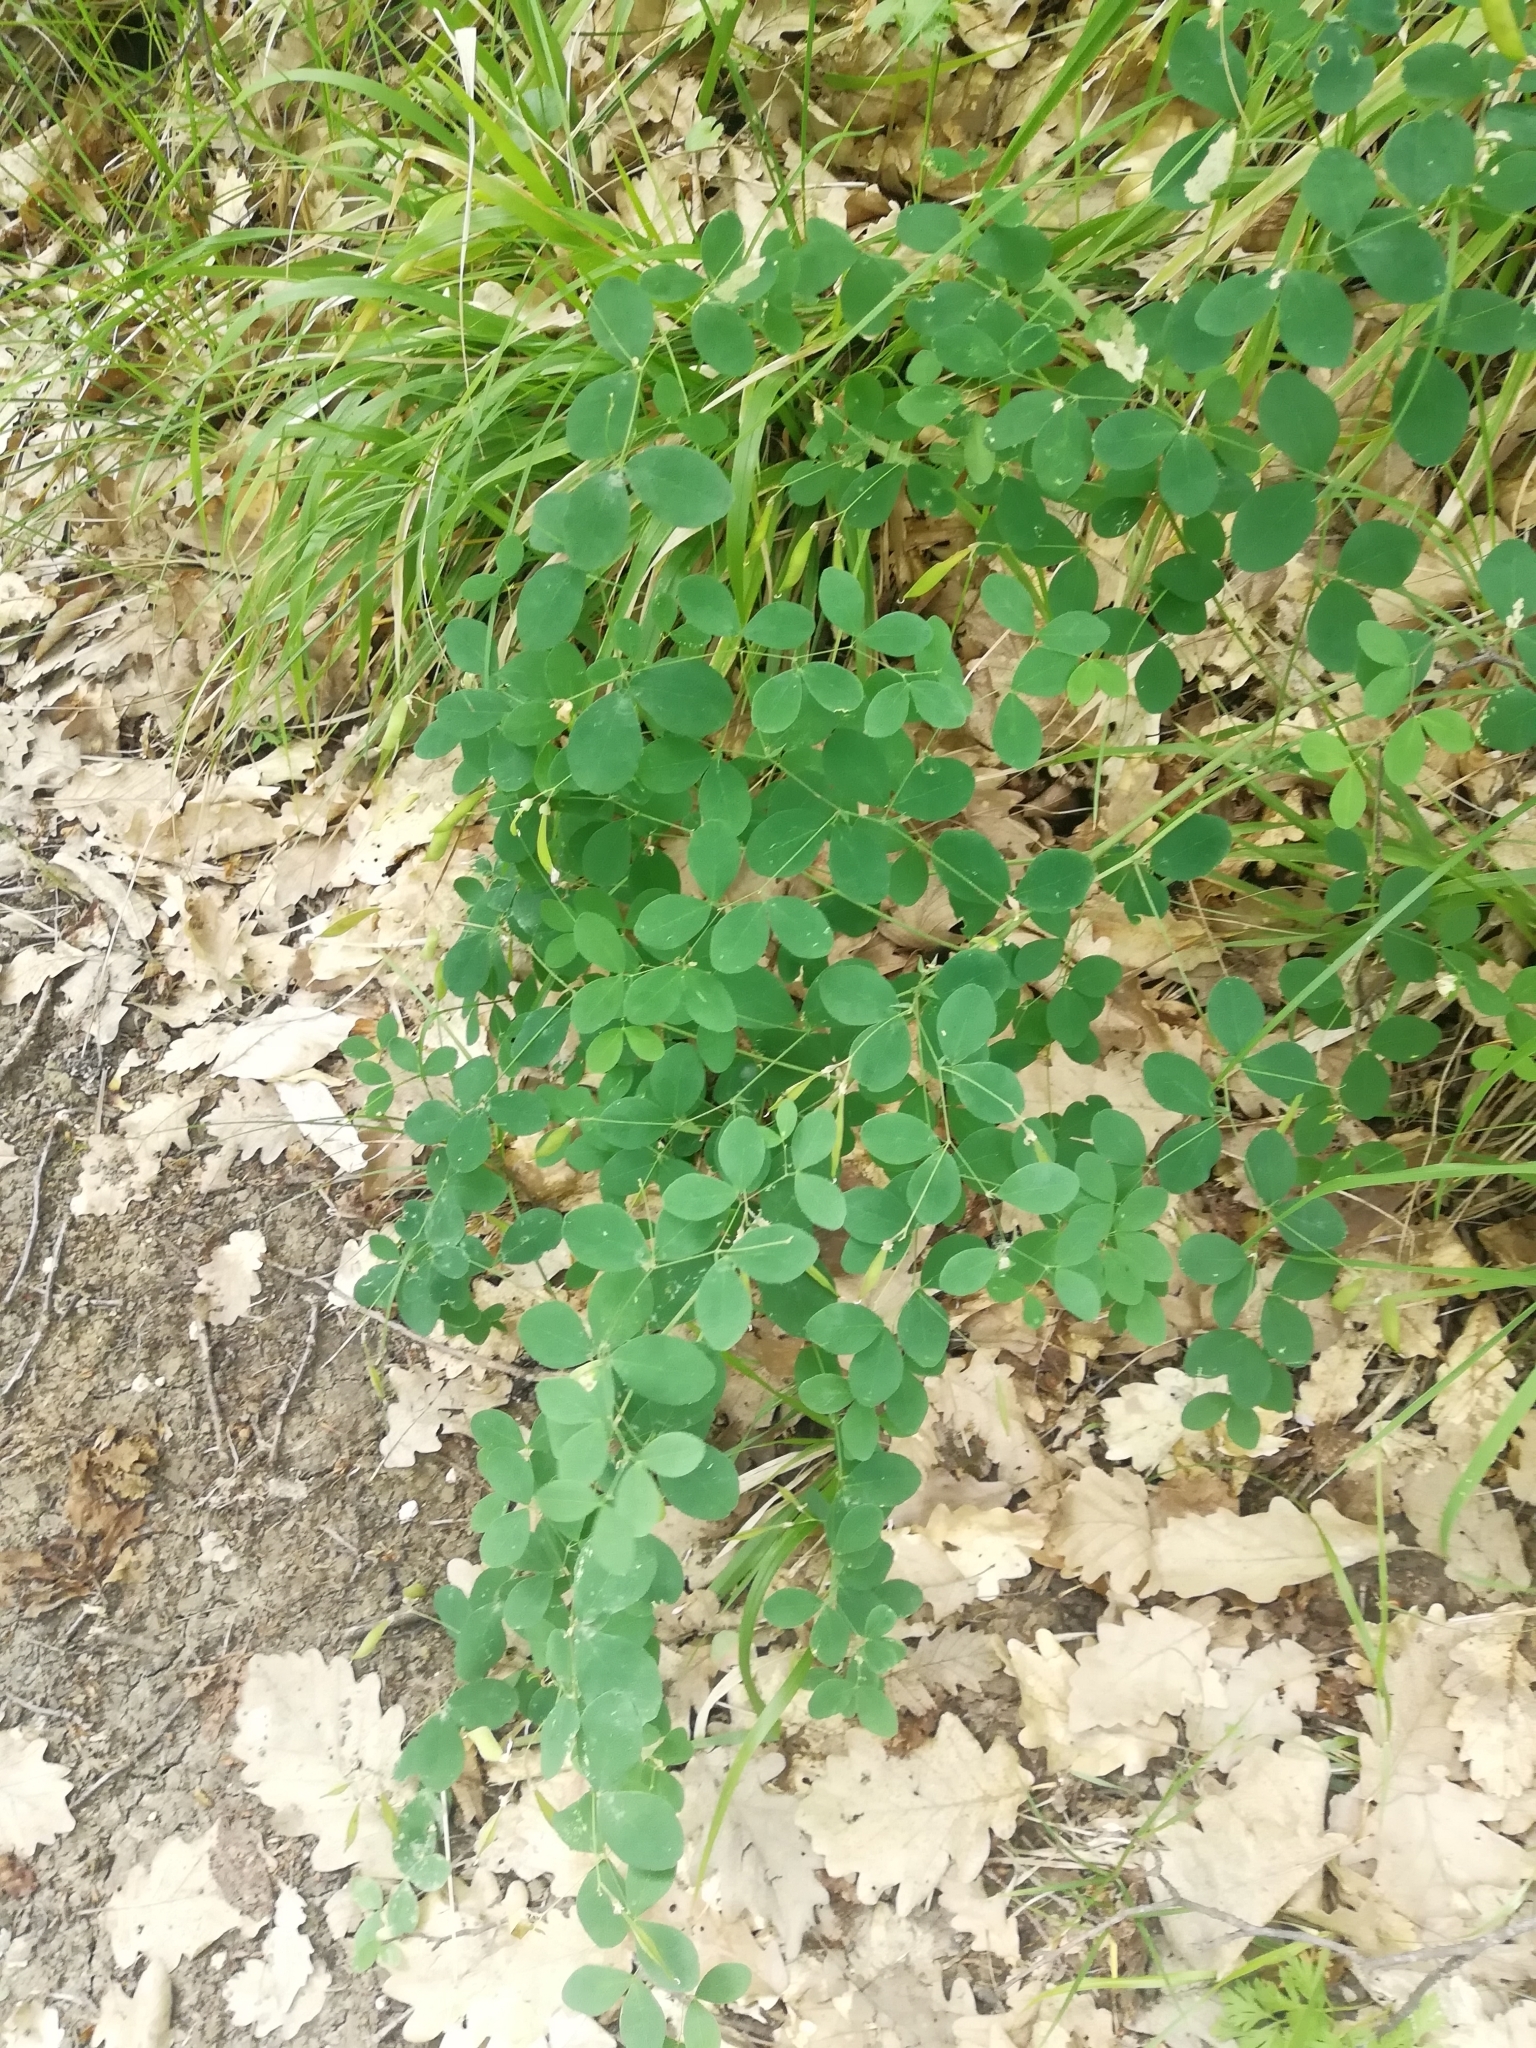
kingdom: Plantae
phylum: Tracheophyta
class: Magnoliopsida
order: Fabales
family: Fabaceae
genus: Lathyrus
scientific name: Lathyrus roseus
